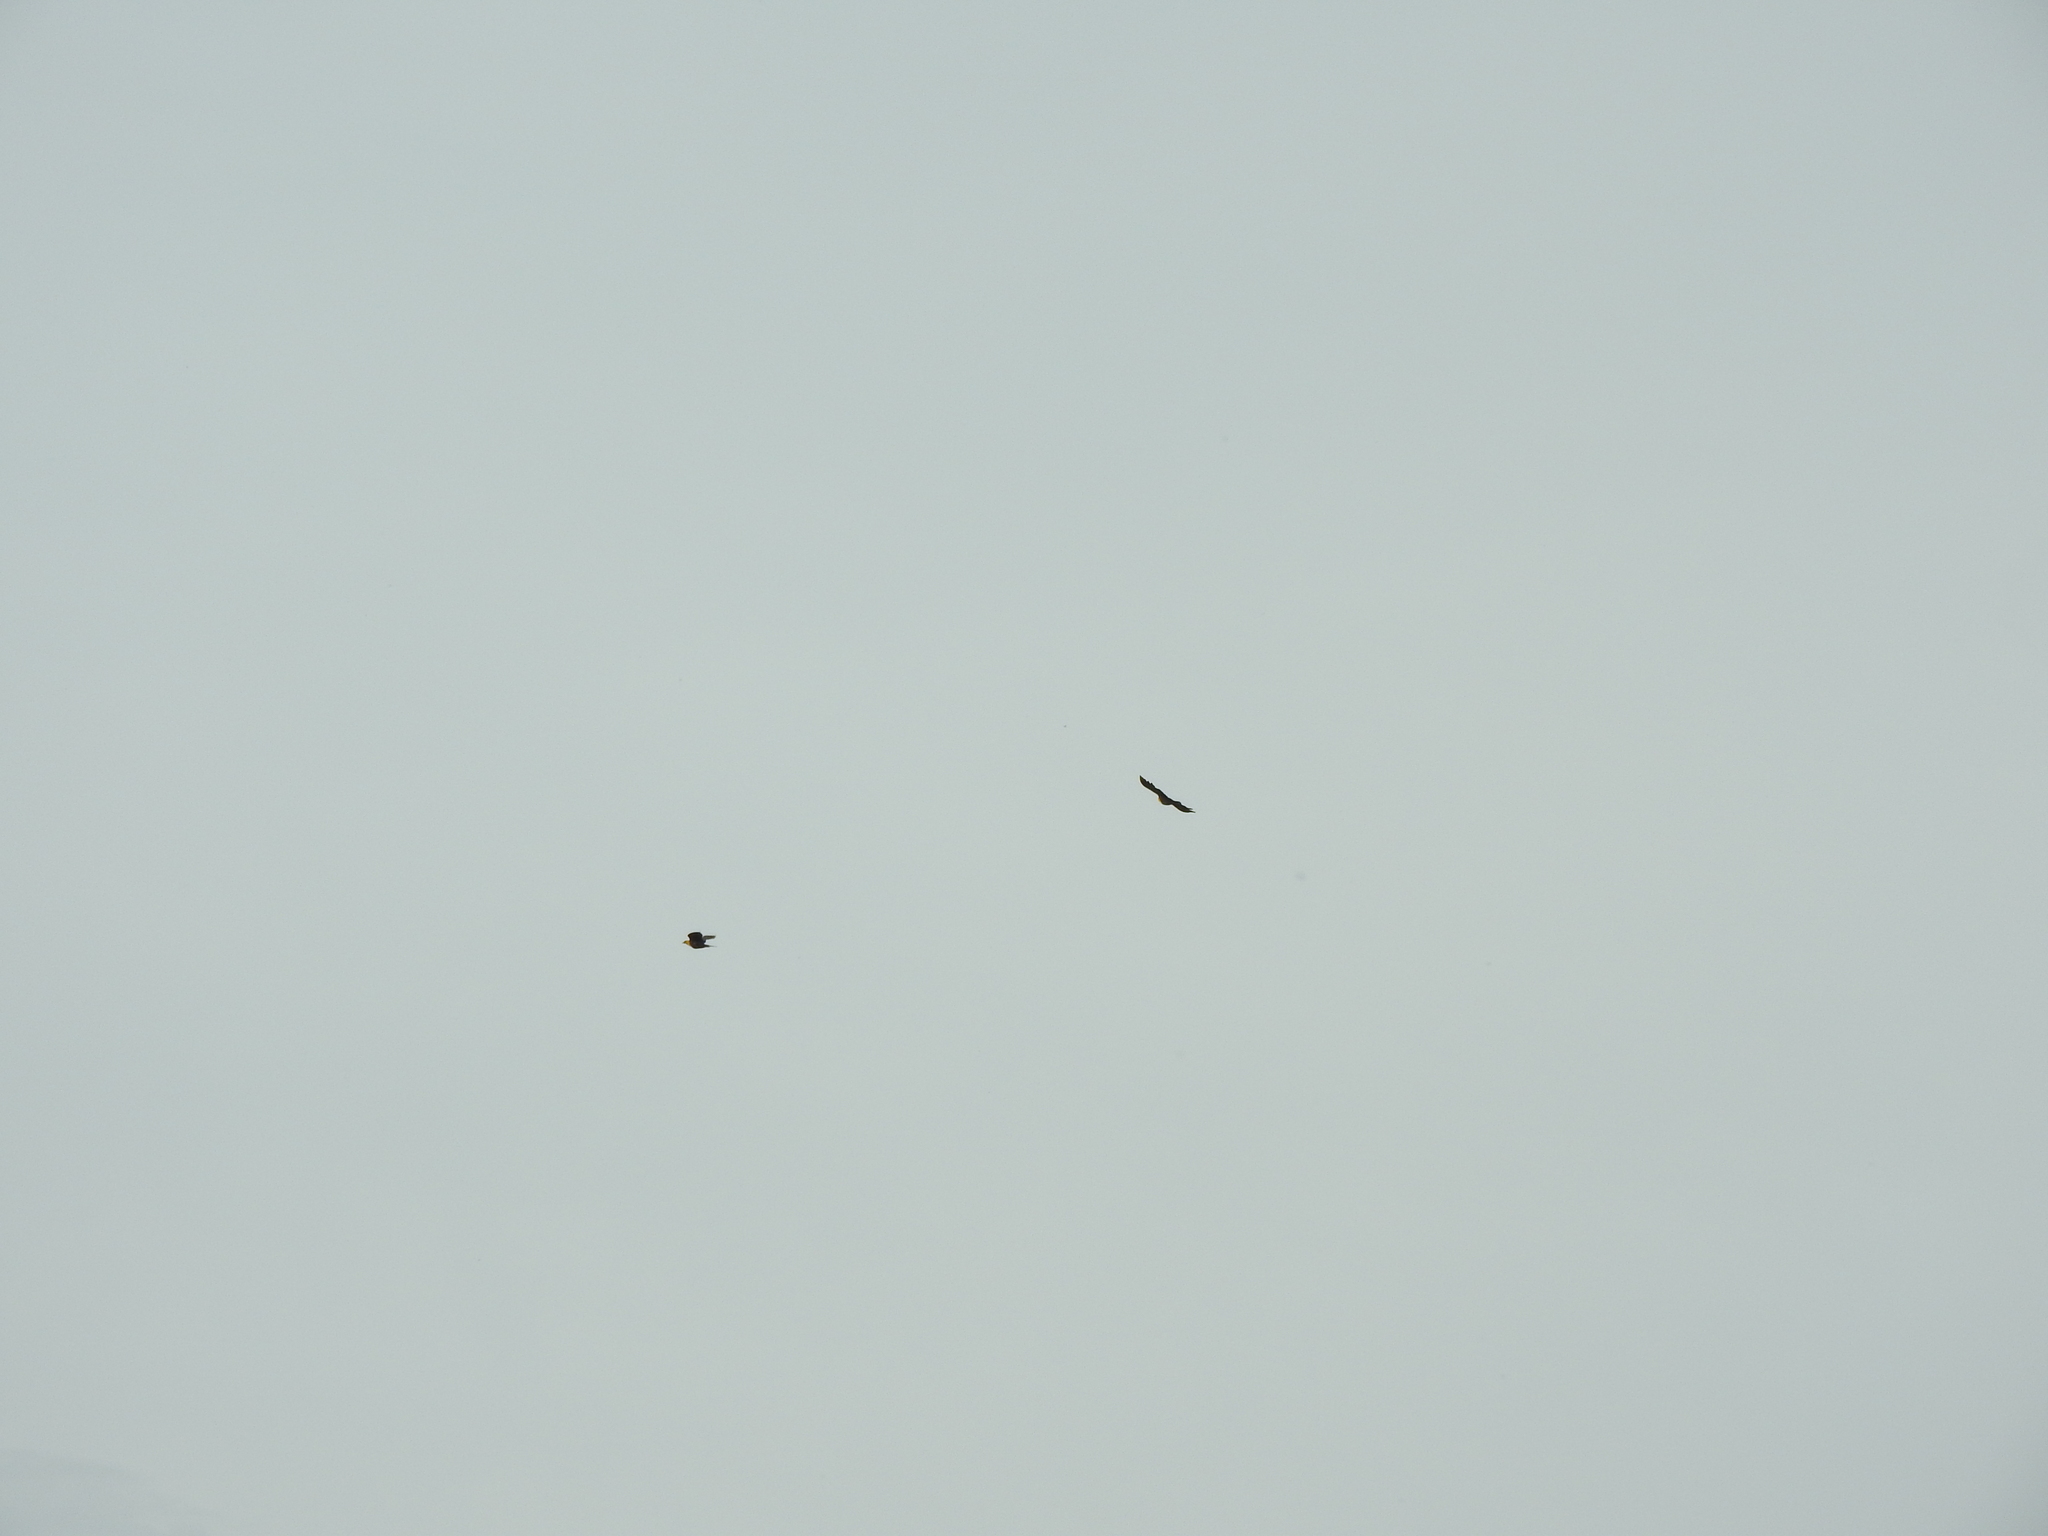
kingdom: Animalia
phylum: Chordata
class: Aves
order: Passeriformes
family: Icteridae
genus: Xanthocephalus
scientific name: Xanthocephalus xanthocephalus
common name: Yellow-headed blackbird
